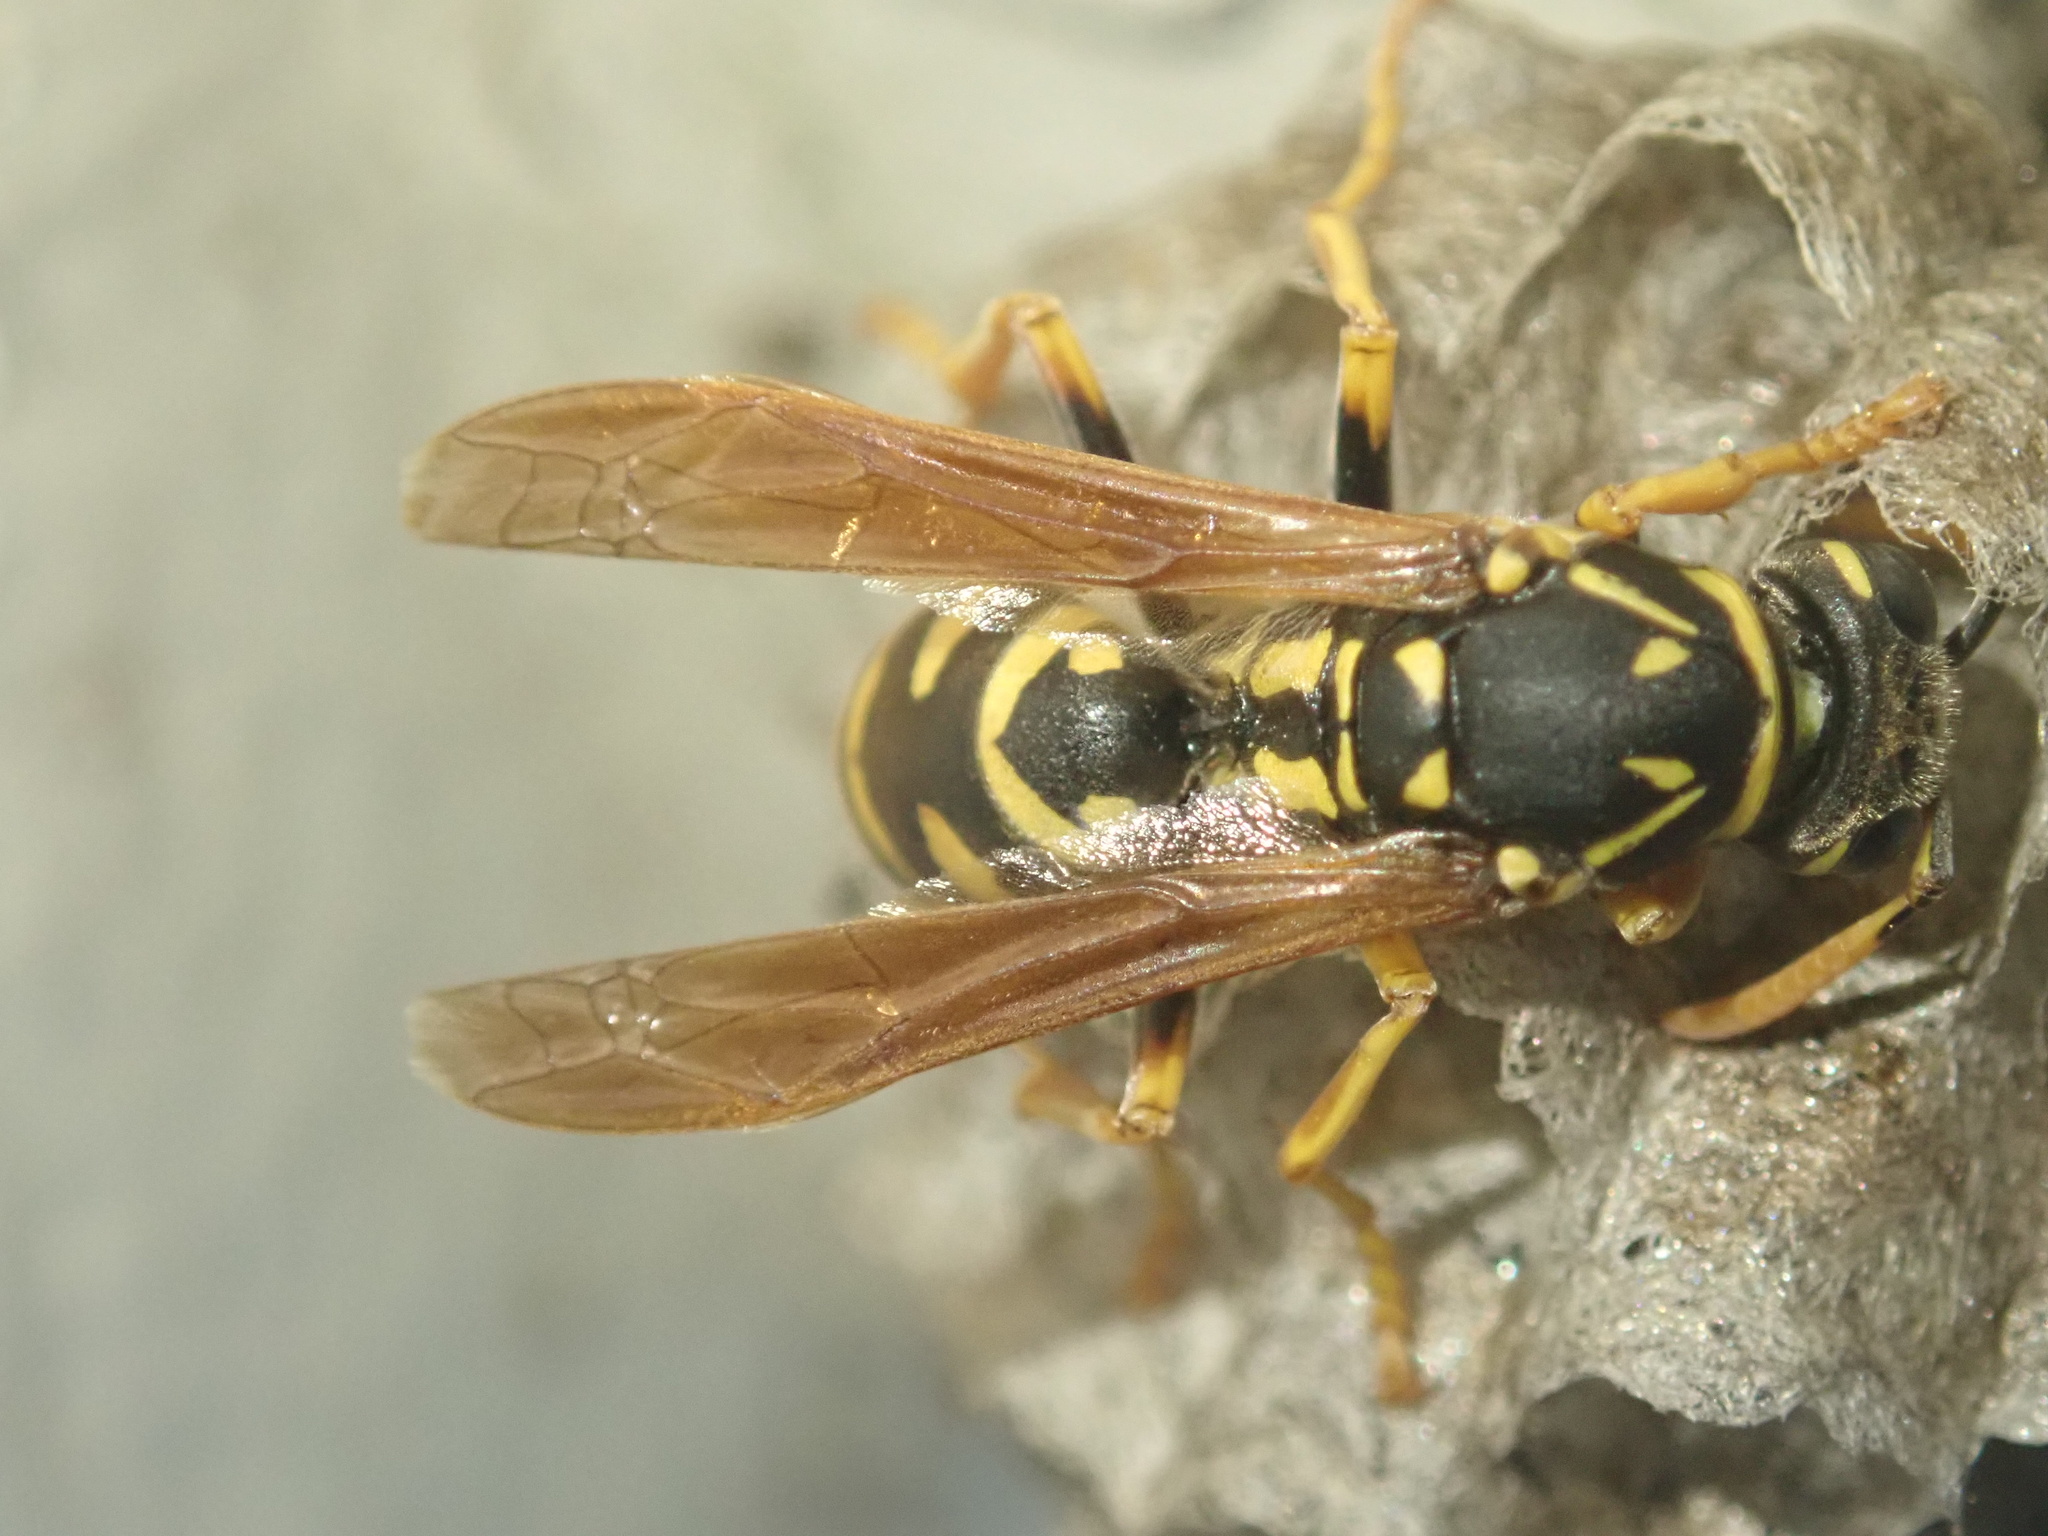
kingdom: Animalia
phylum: Arthropoda
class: Insecta
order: Hymenoptera
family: Eumenidae
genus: Polistes
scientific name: Polistes dominula
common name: Paper wasp
